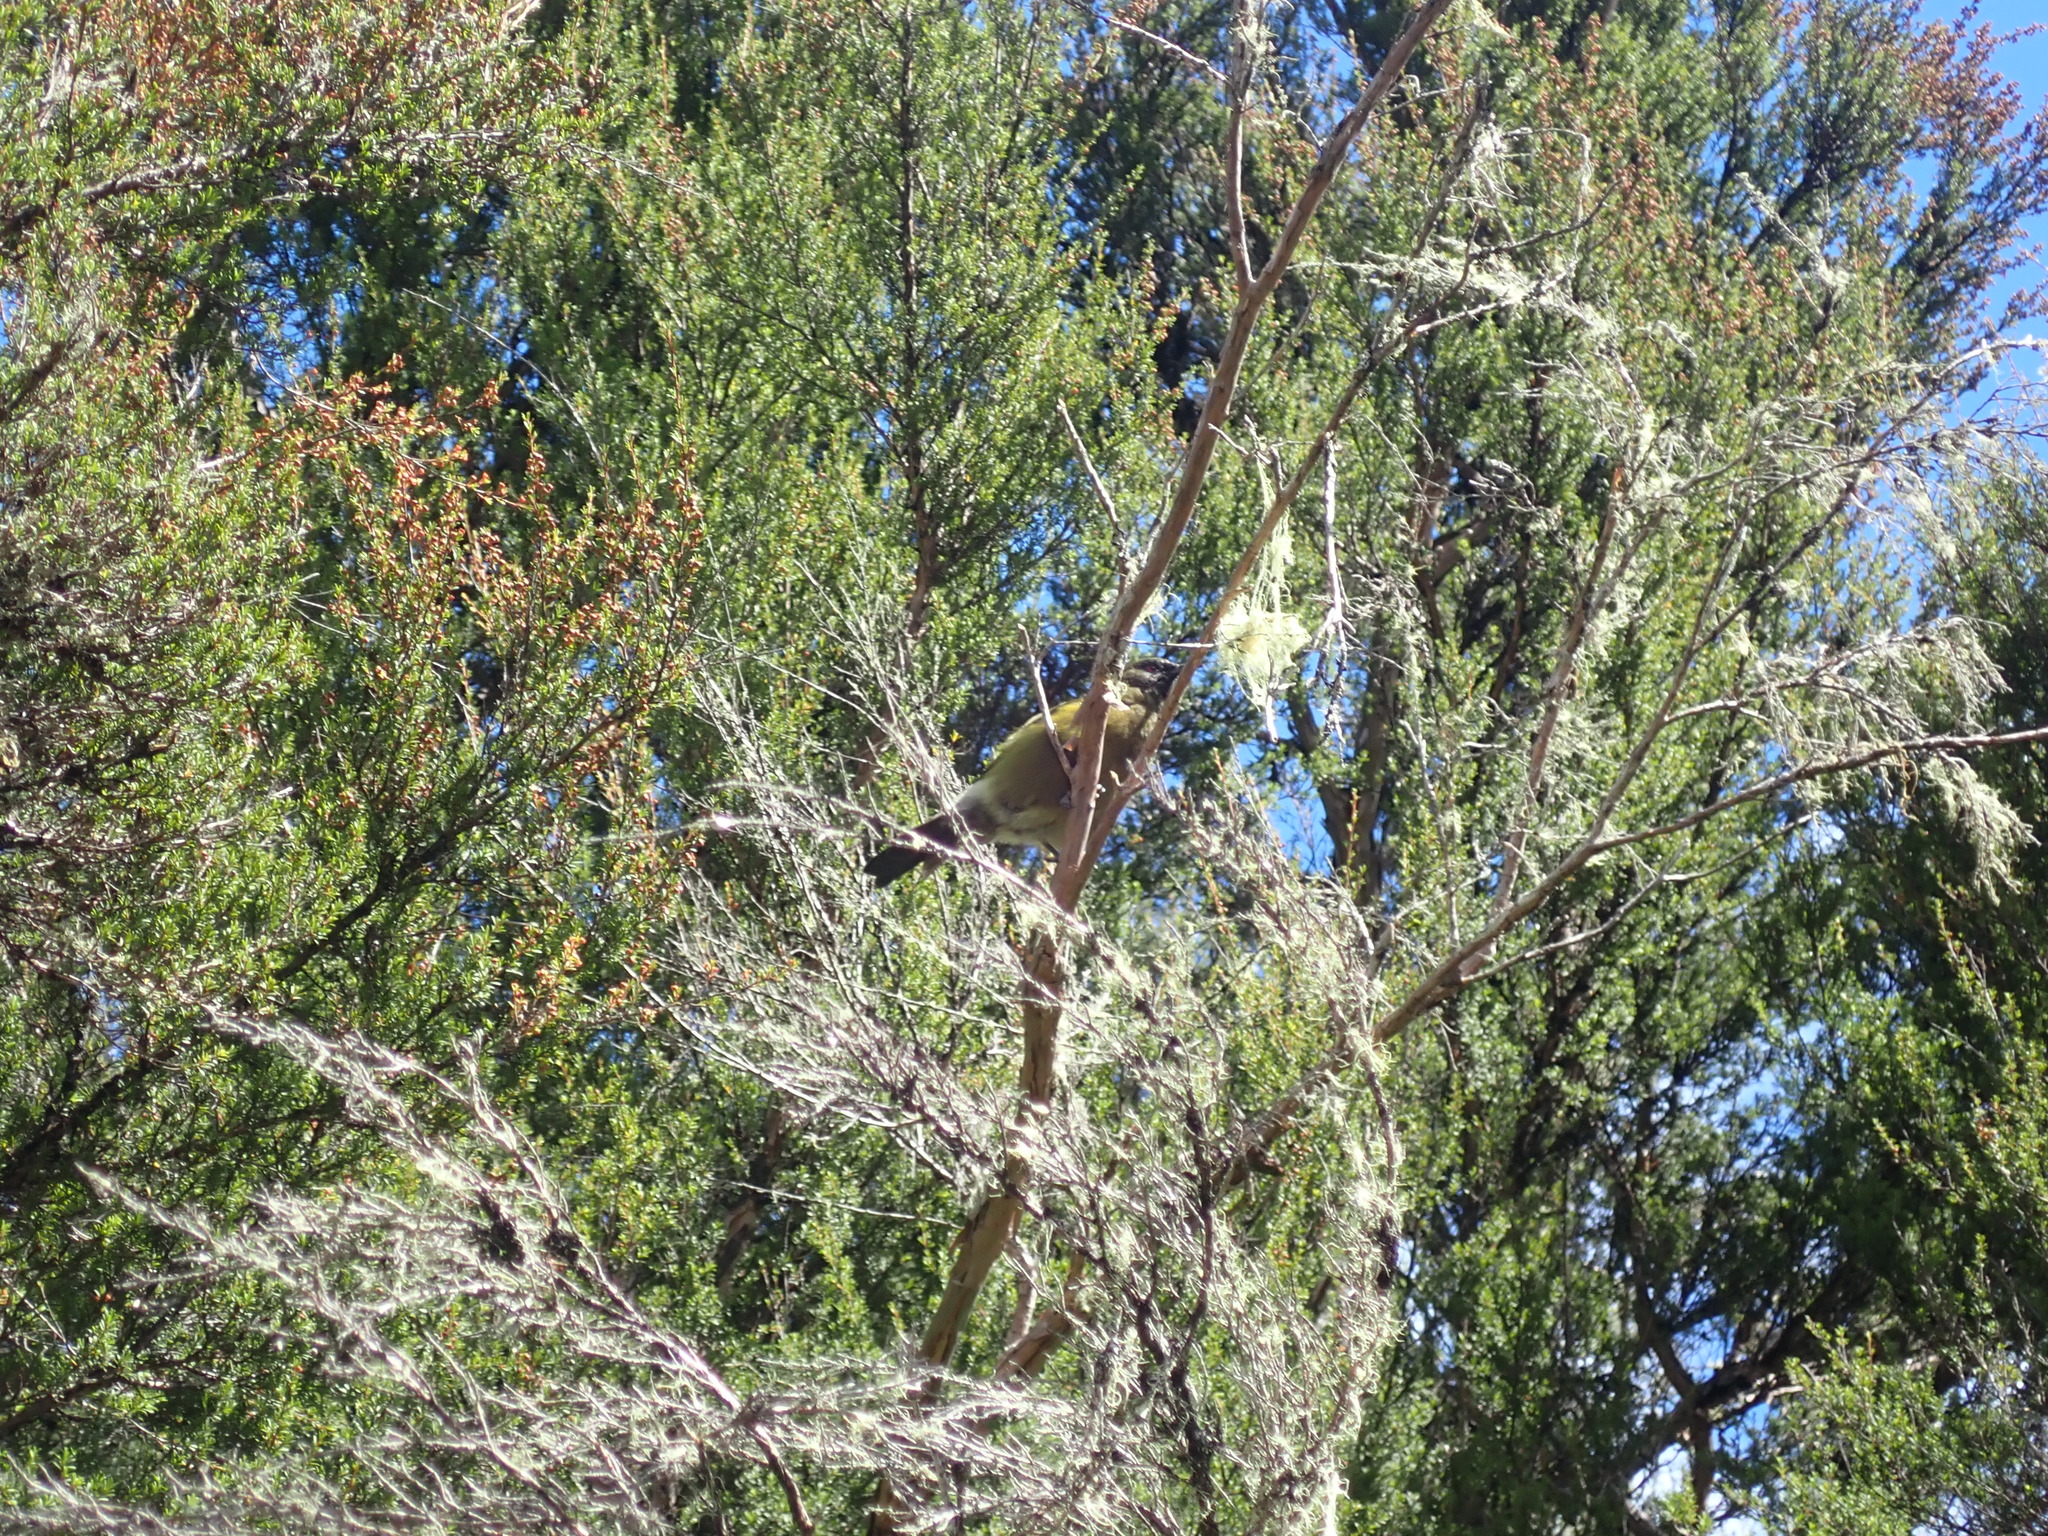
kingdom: Animalia
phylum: Chordata
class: Aves
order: Passeriformes
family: Meliphagidae
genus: Anthornis
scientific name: Anthornis melanura
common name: New zealand bellbird
